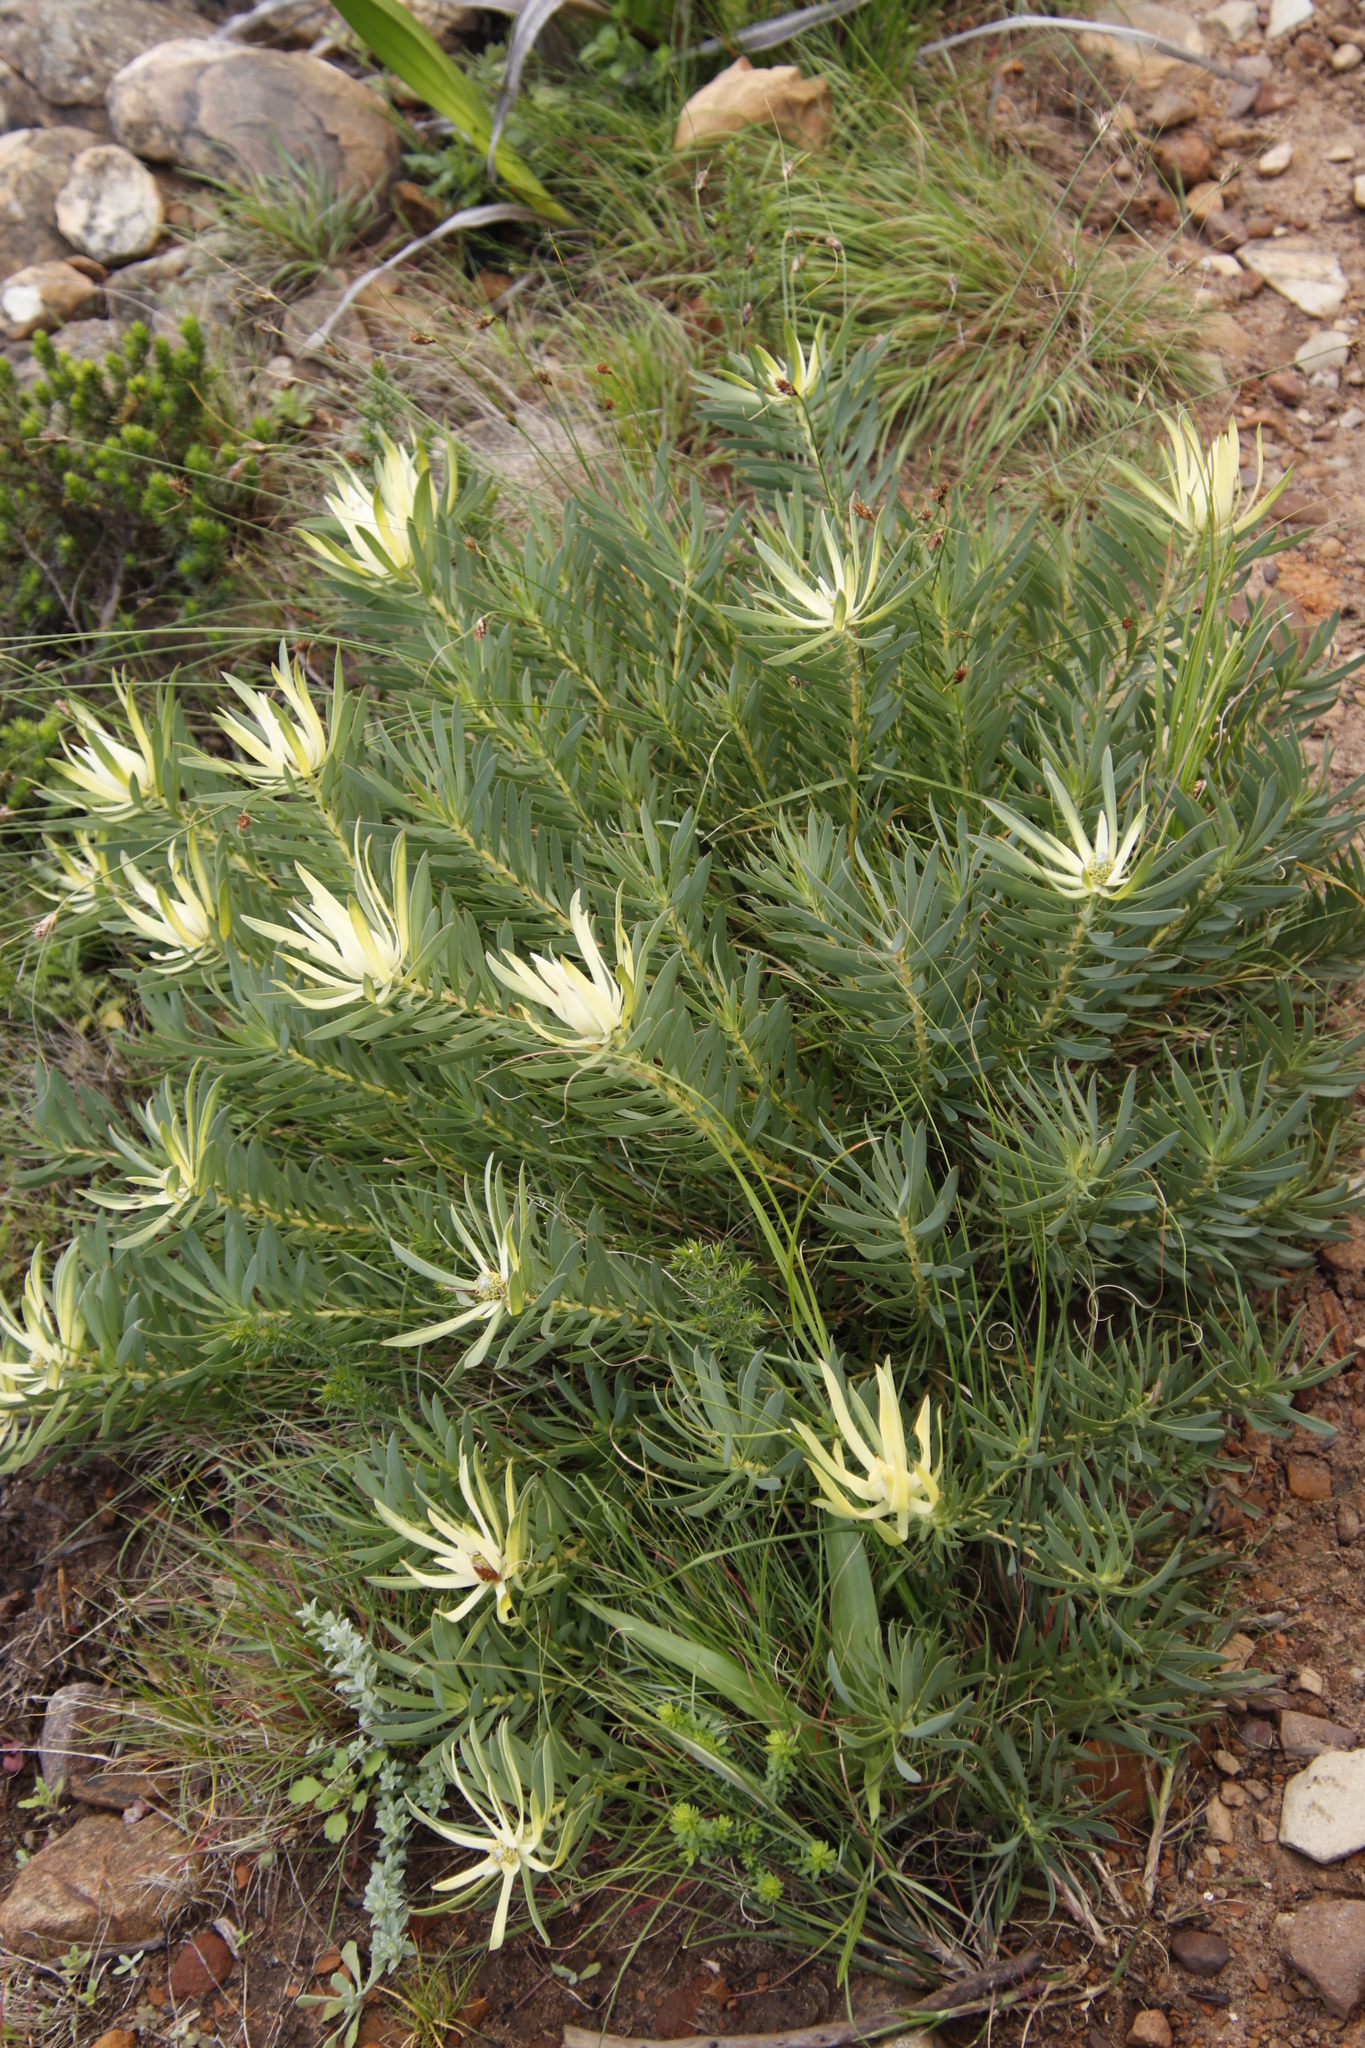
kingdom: Plantae
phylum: Tracheophyta
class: Magnoliopsida
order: Proteales
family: Proteaceae
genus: Leucadendron
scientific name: Leucadendron salignum
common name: Common sunshine conebush
